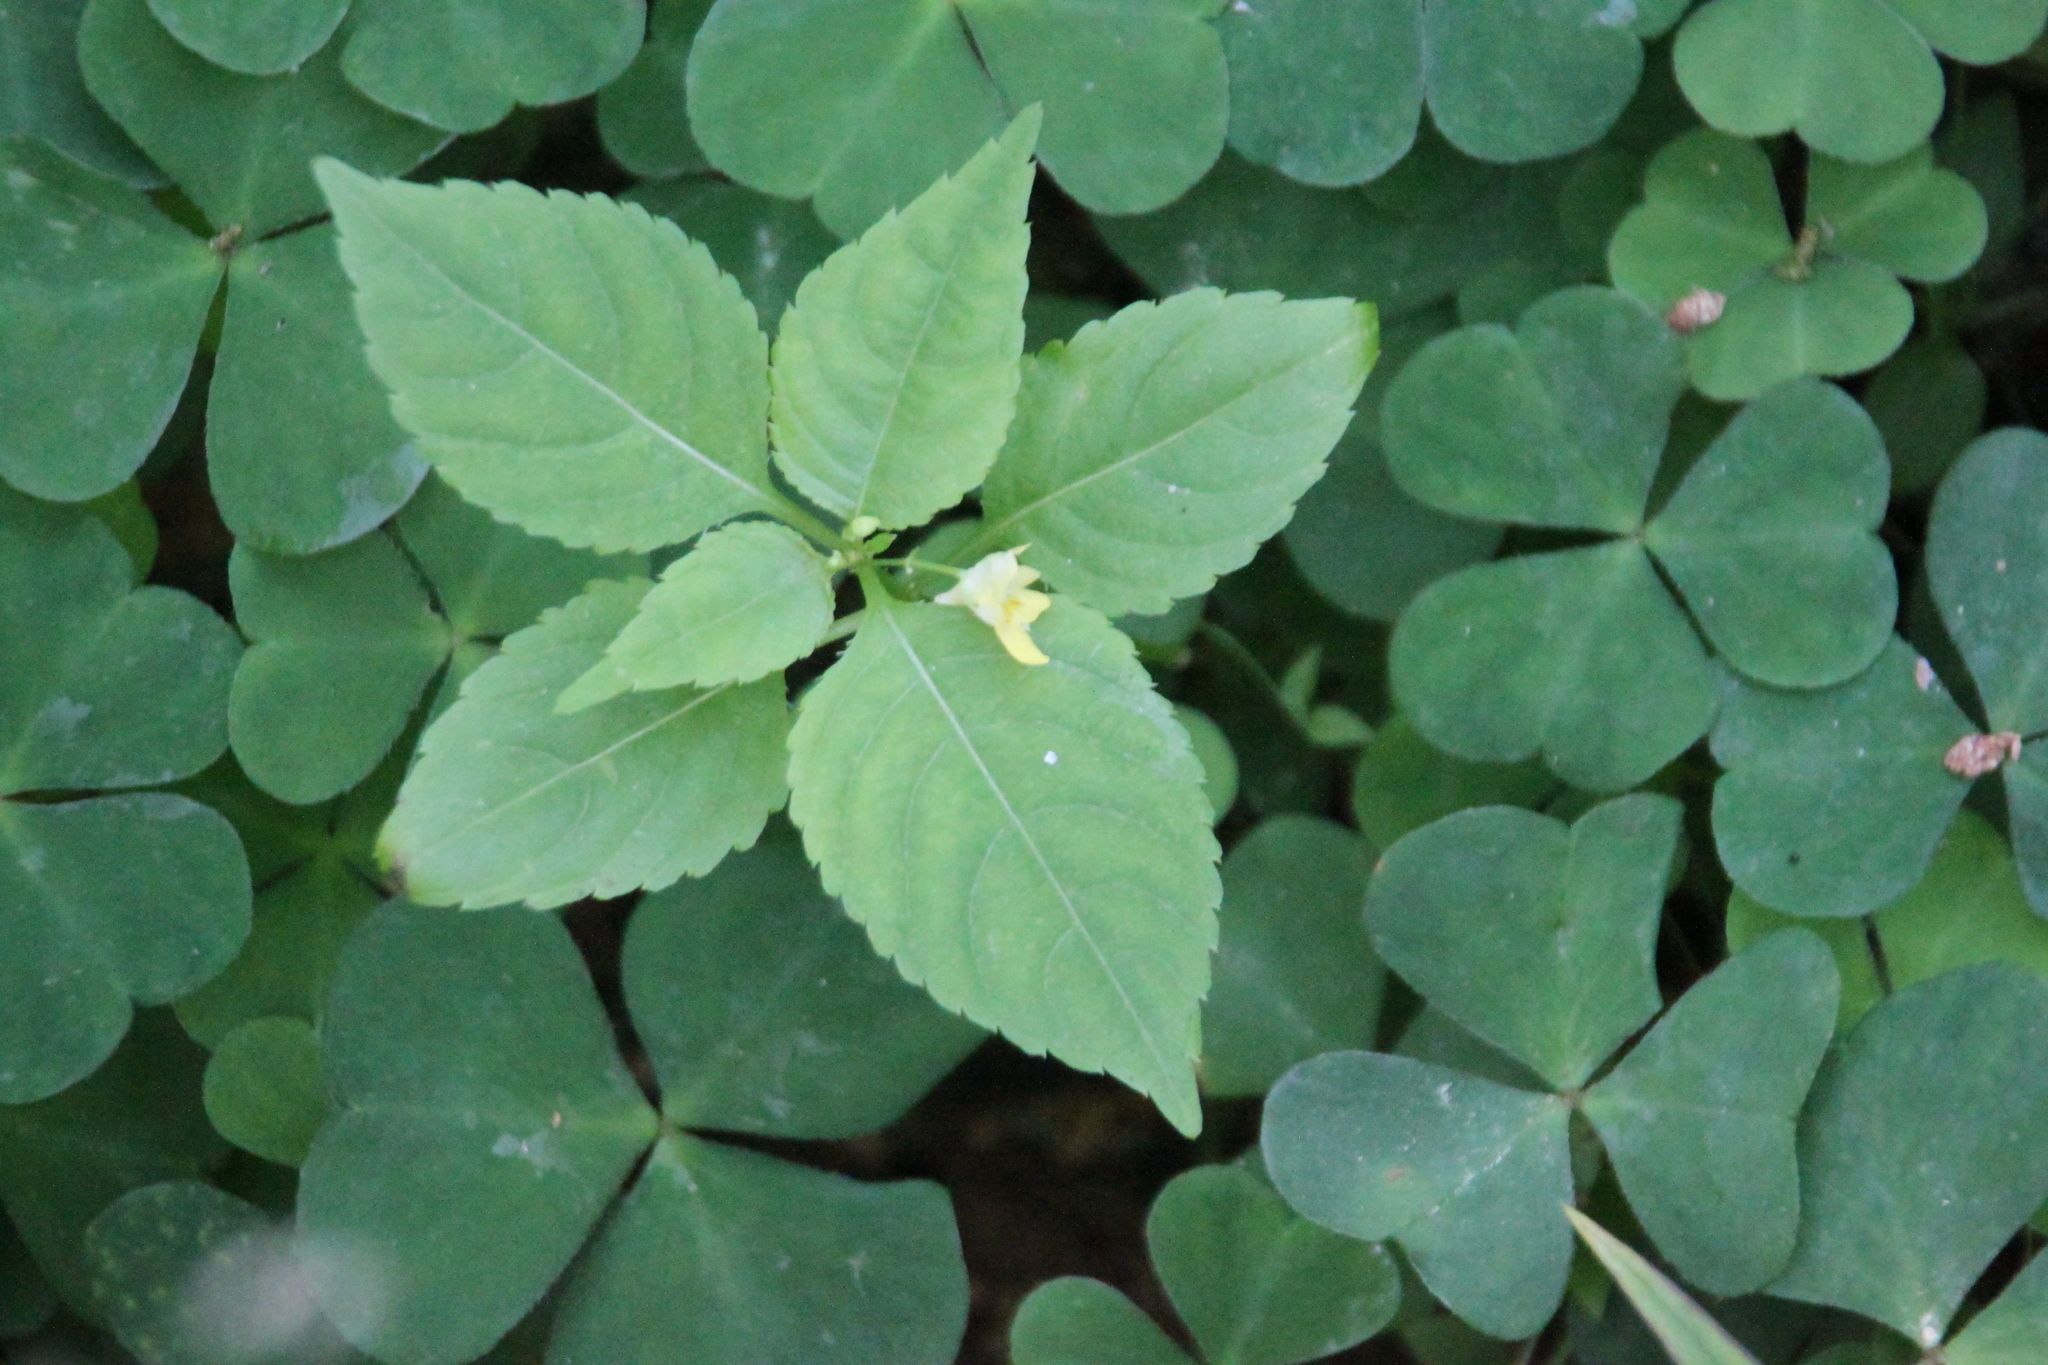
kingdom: Plantae
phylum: Tracheophyta
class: Magnoliopsida
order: Ericales
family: Balsaminaceae
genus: Impatiens
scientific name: Impatiens parviflora
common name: Small balsam
